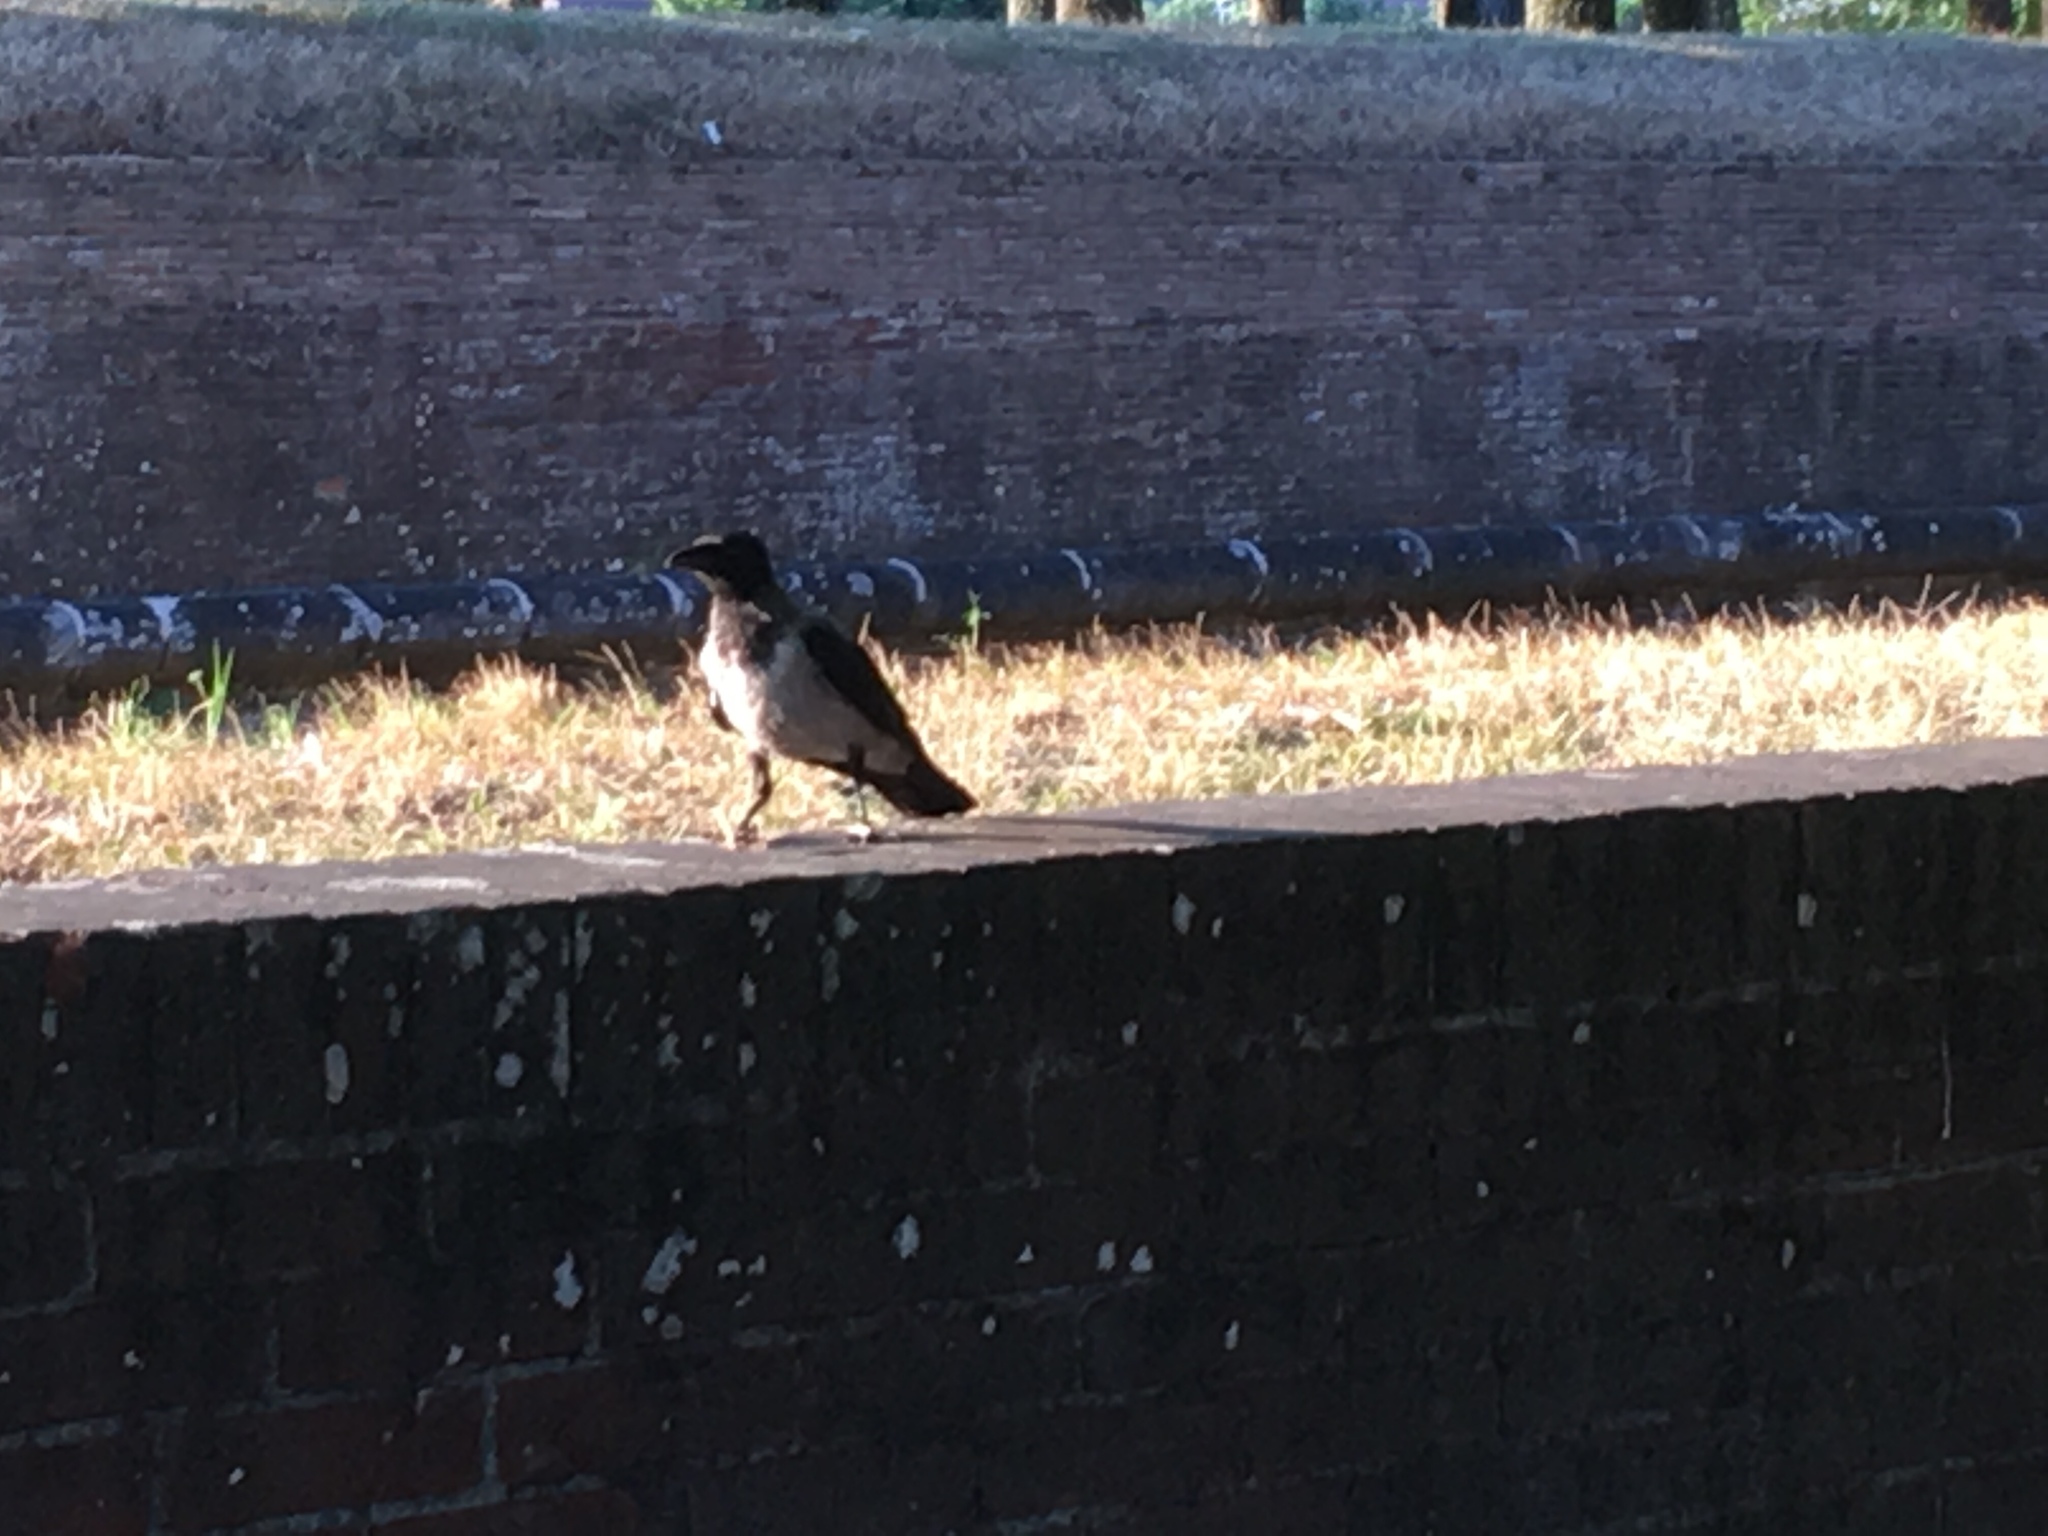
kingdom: Animalia
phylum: Chordata
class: Aves
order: Passeriformes
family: Corvidae
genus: Corvus
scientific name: Corvus cornix
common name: Hooded crow
